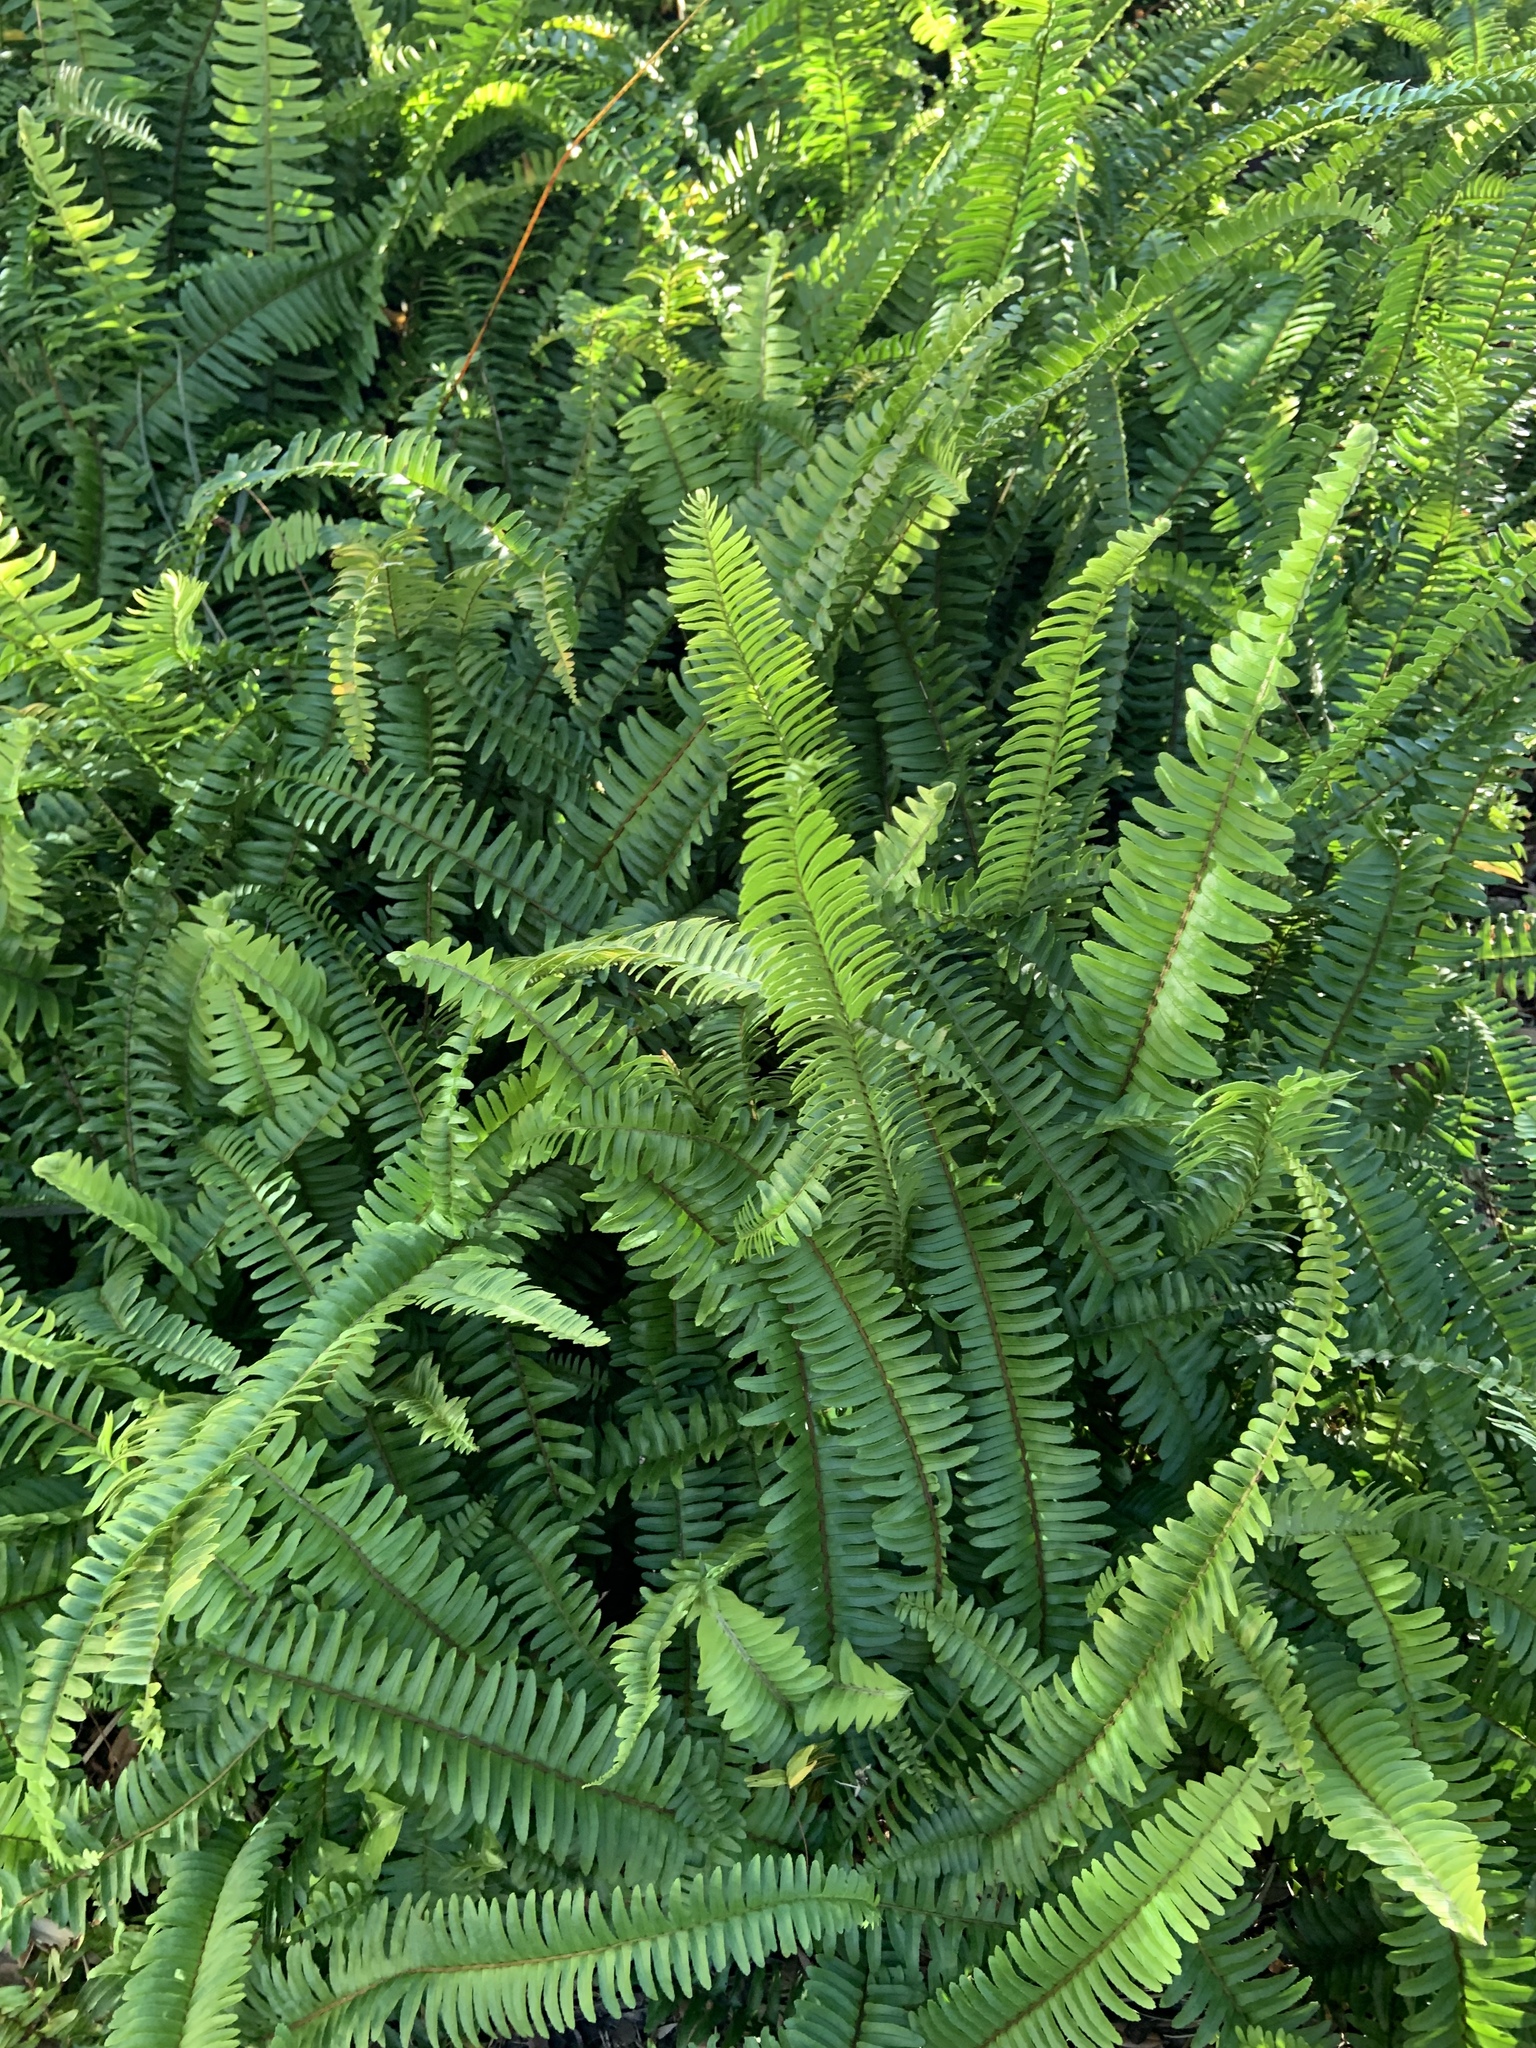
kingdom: Plantae
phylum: Tracheophyta
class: Polypodiopsida
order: Polypodiales
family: Nephrolepidaceae
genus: Nephrolepis
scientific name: Nephrolepis cordifolia
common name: Narrow swordfern
